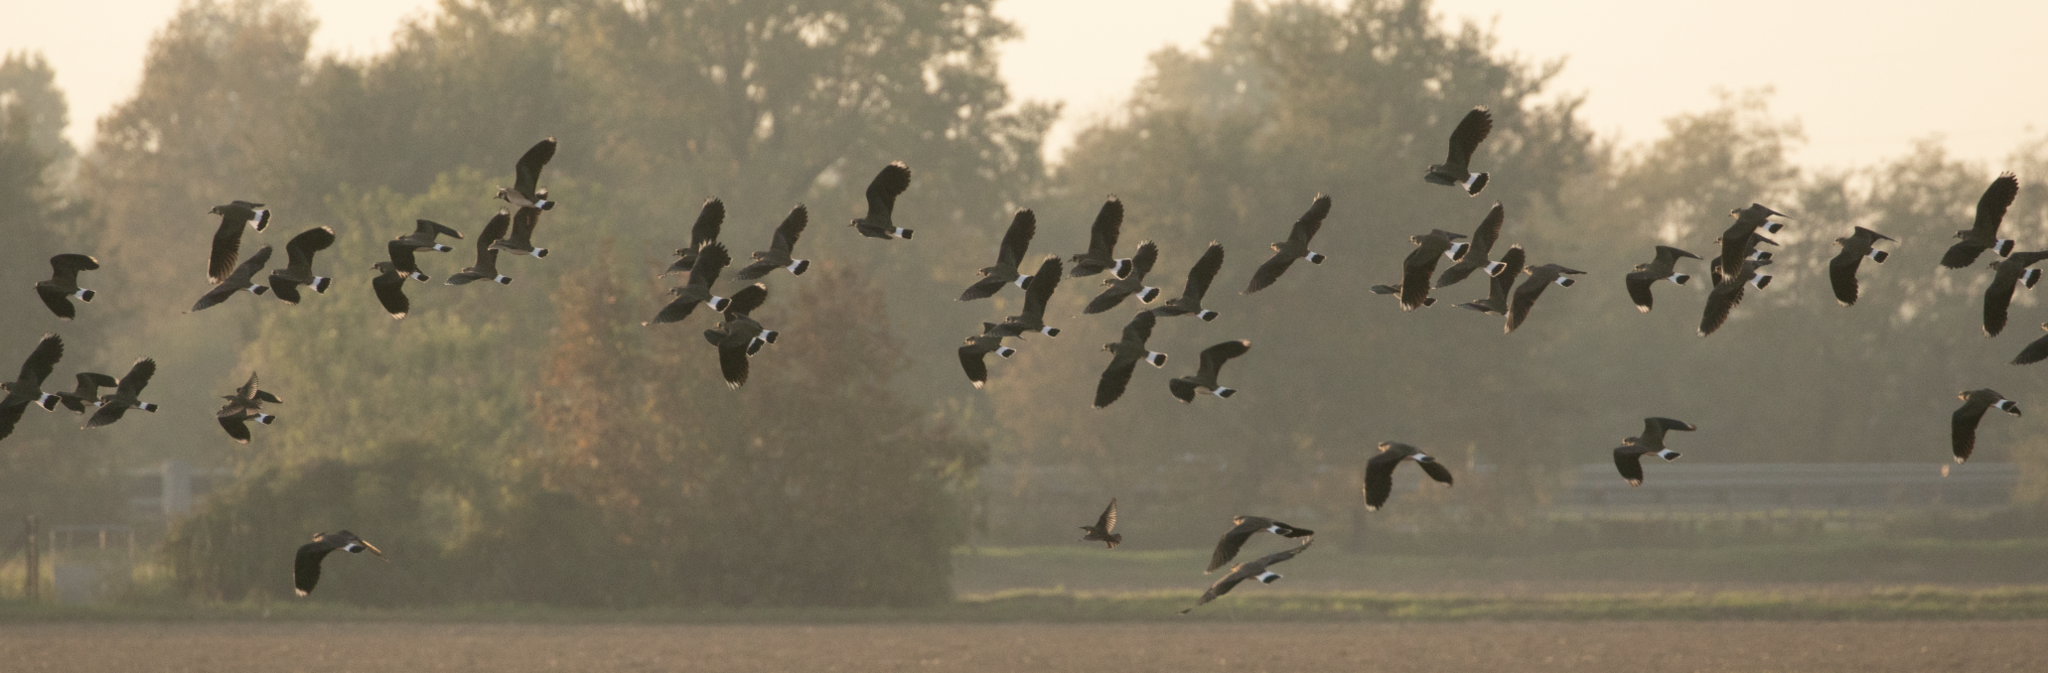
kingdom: Animalia
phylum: Chordata
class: Aves
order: Charadriiformes
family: Charadriidae
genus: Vanellus
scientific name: Vanellus vanellus
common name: Northern lapwing
